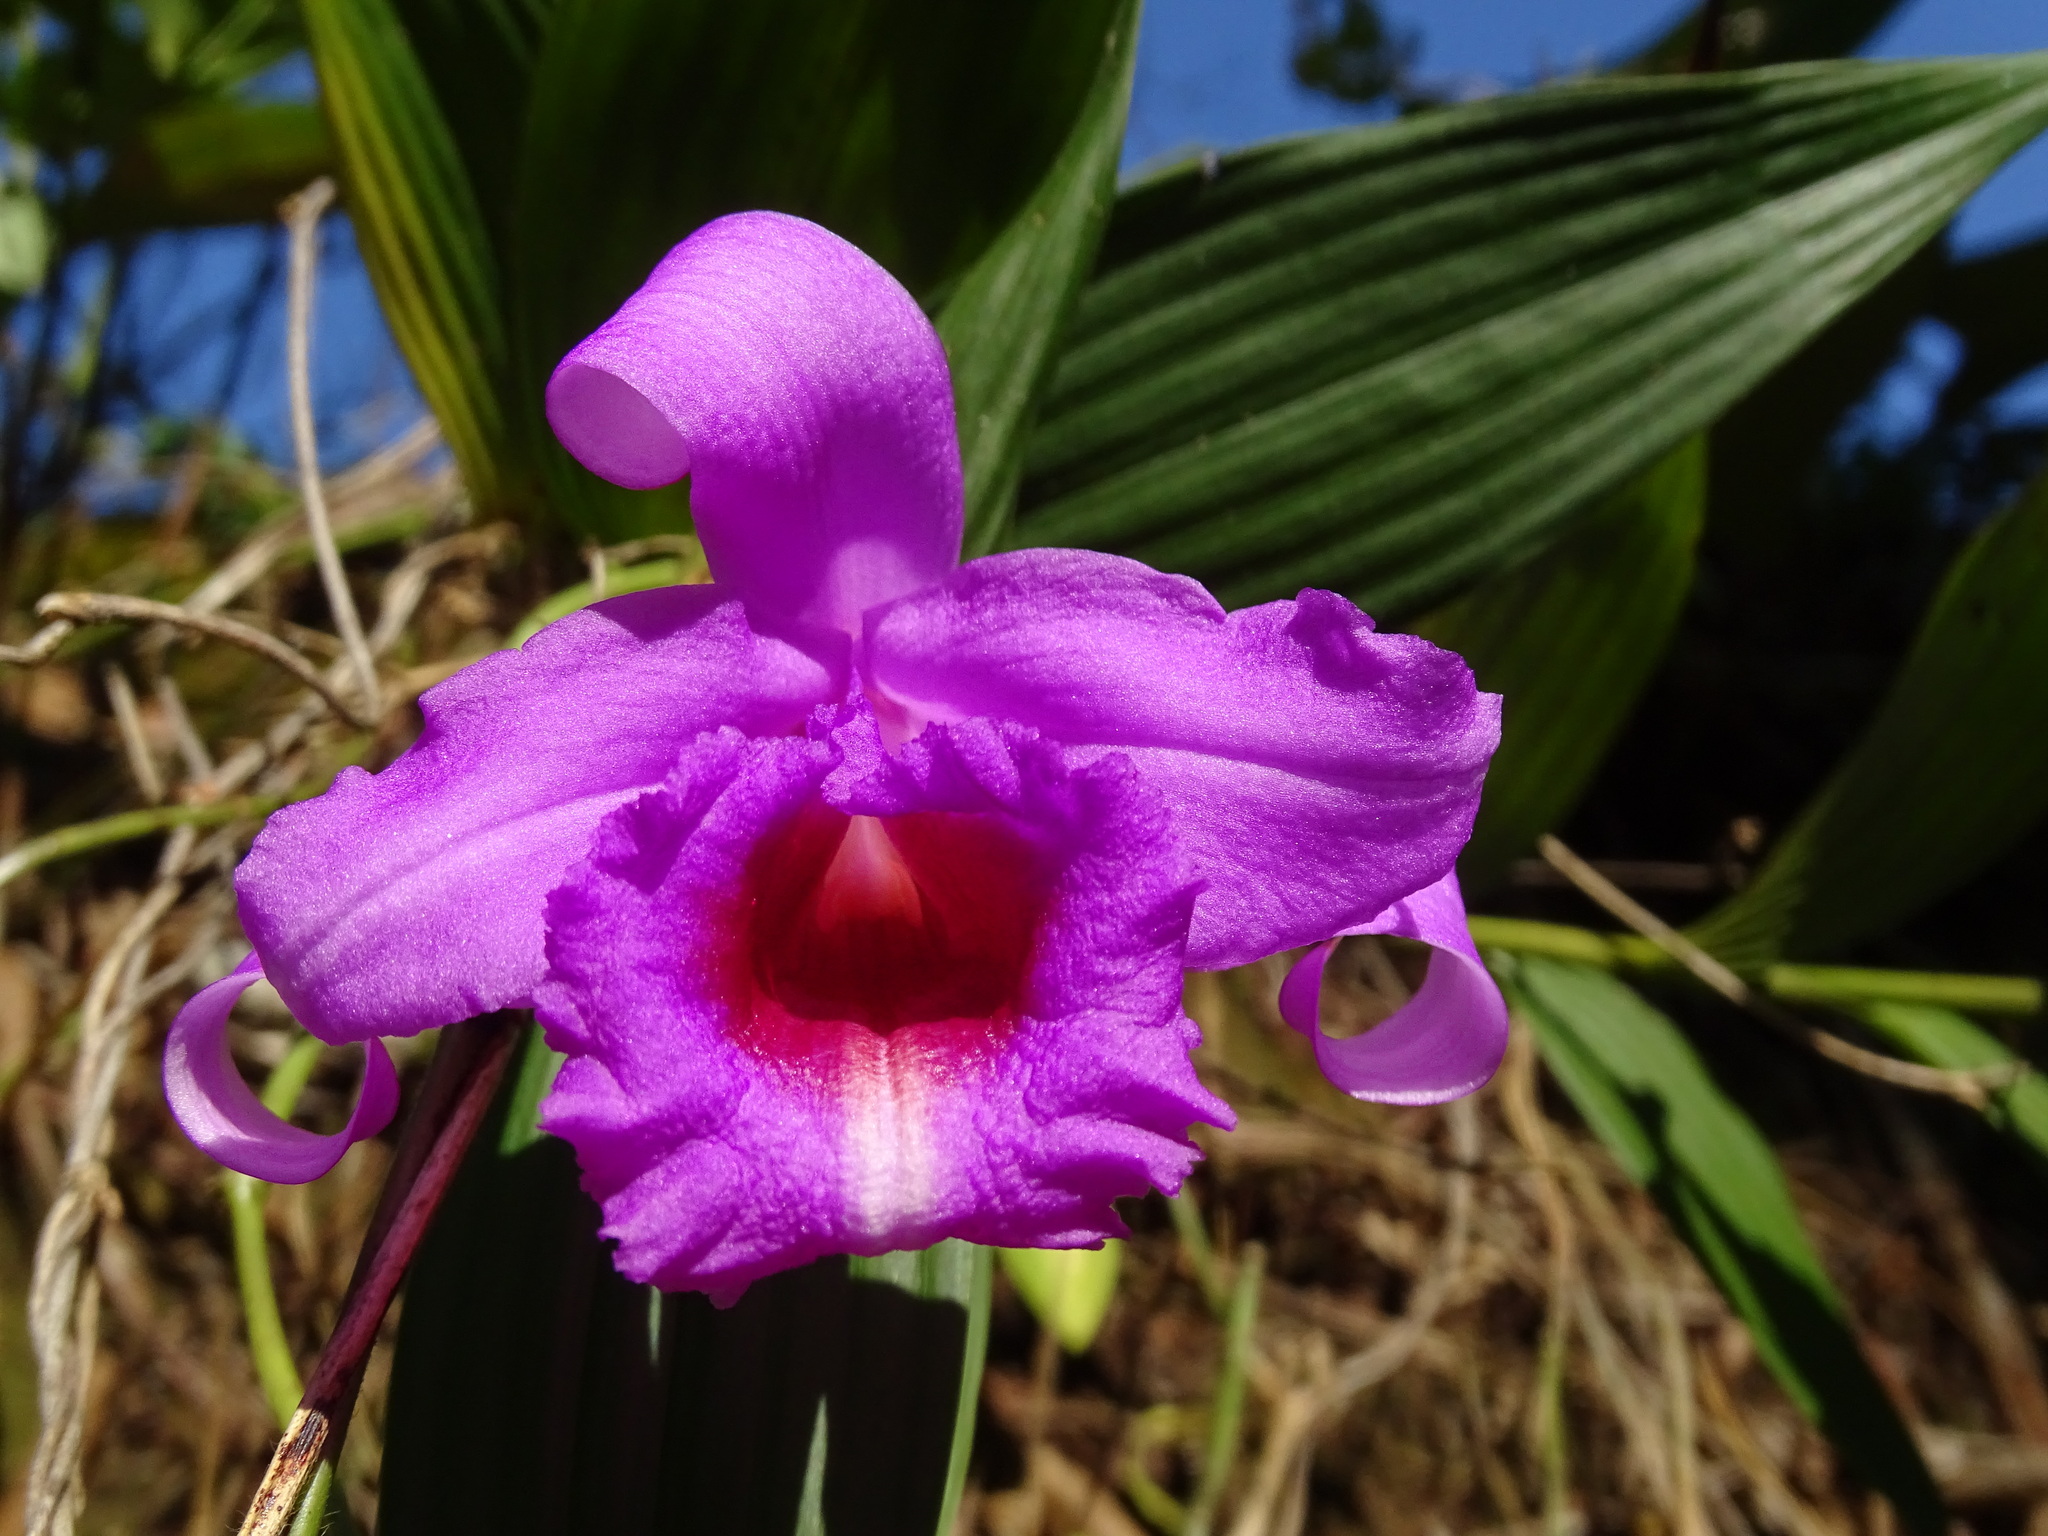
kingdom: Plantae
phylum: Tracheophyta
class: Liliopsida
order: Asparagales
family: Orchidaceae
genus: Sobralia
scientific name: Sobralia decora
